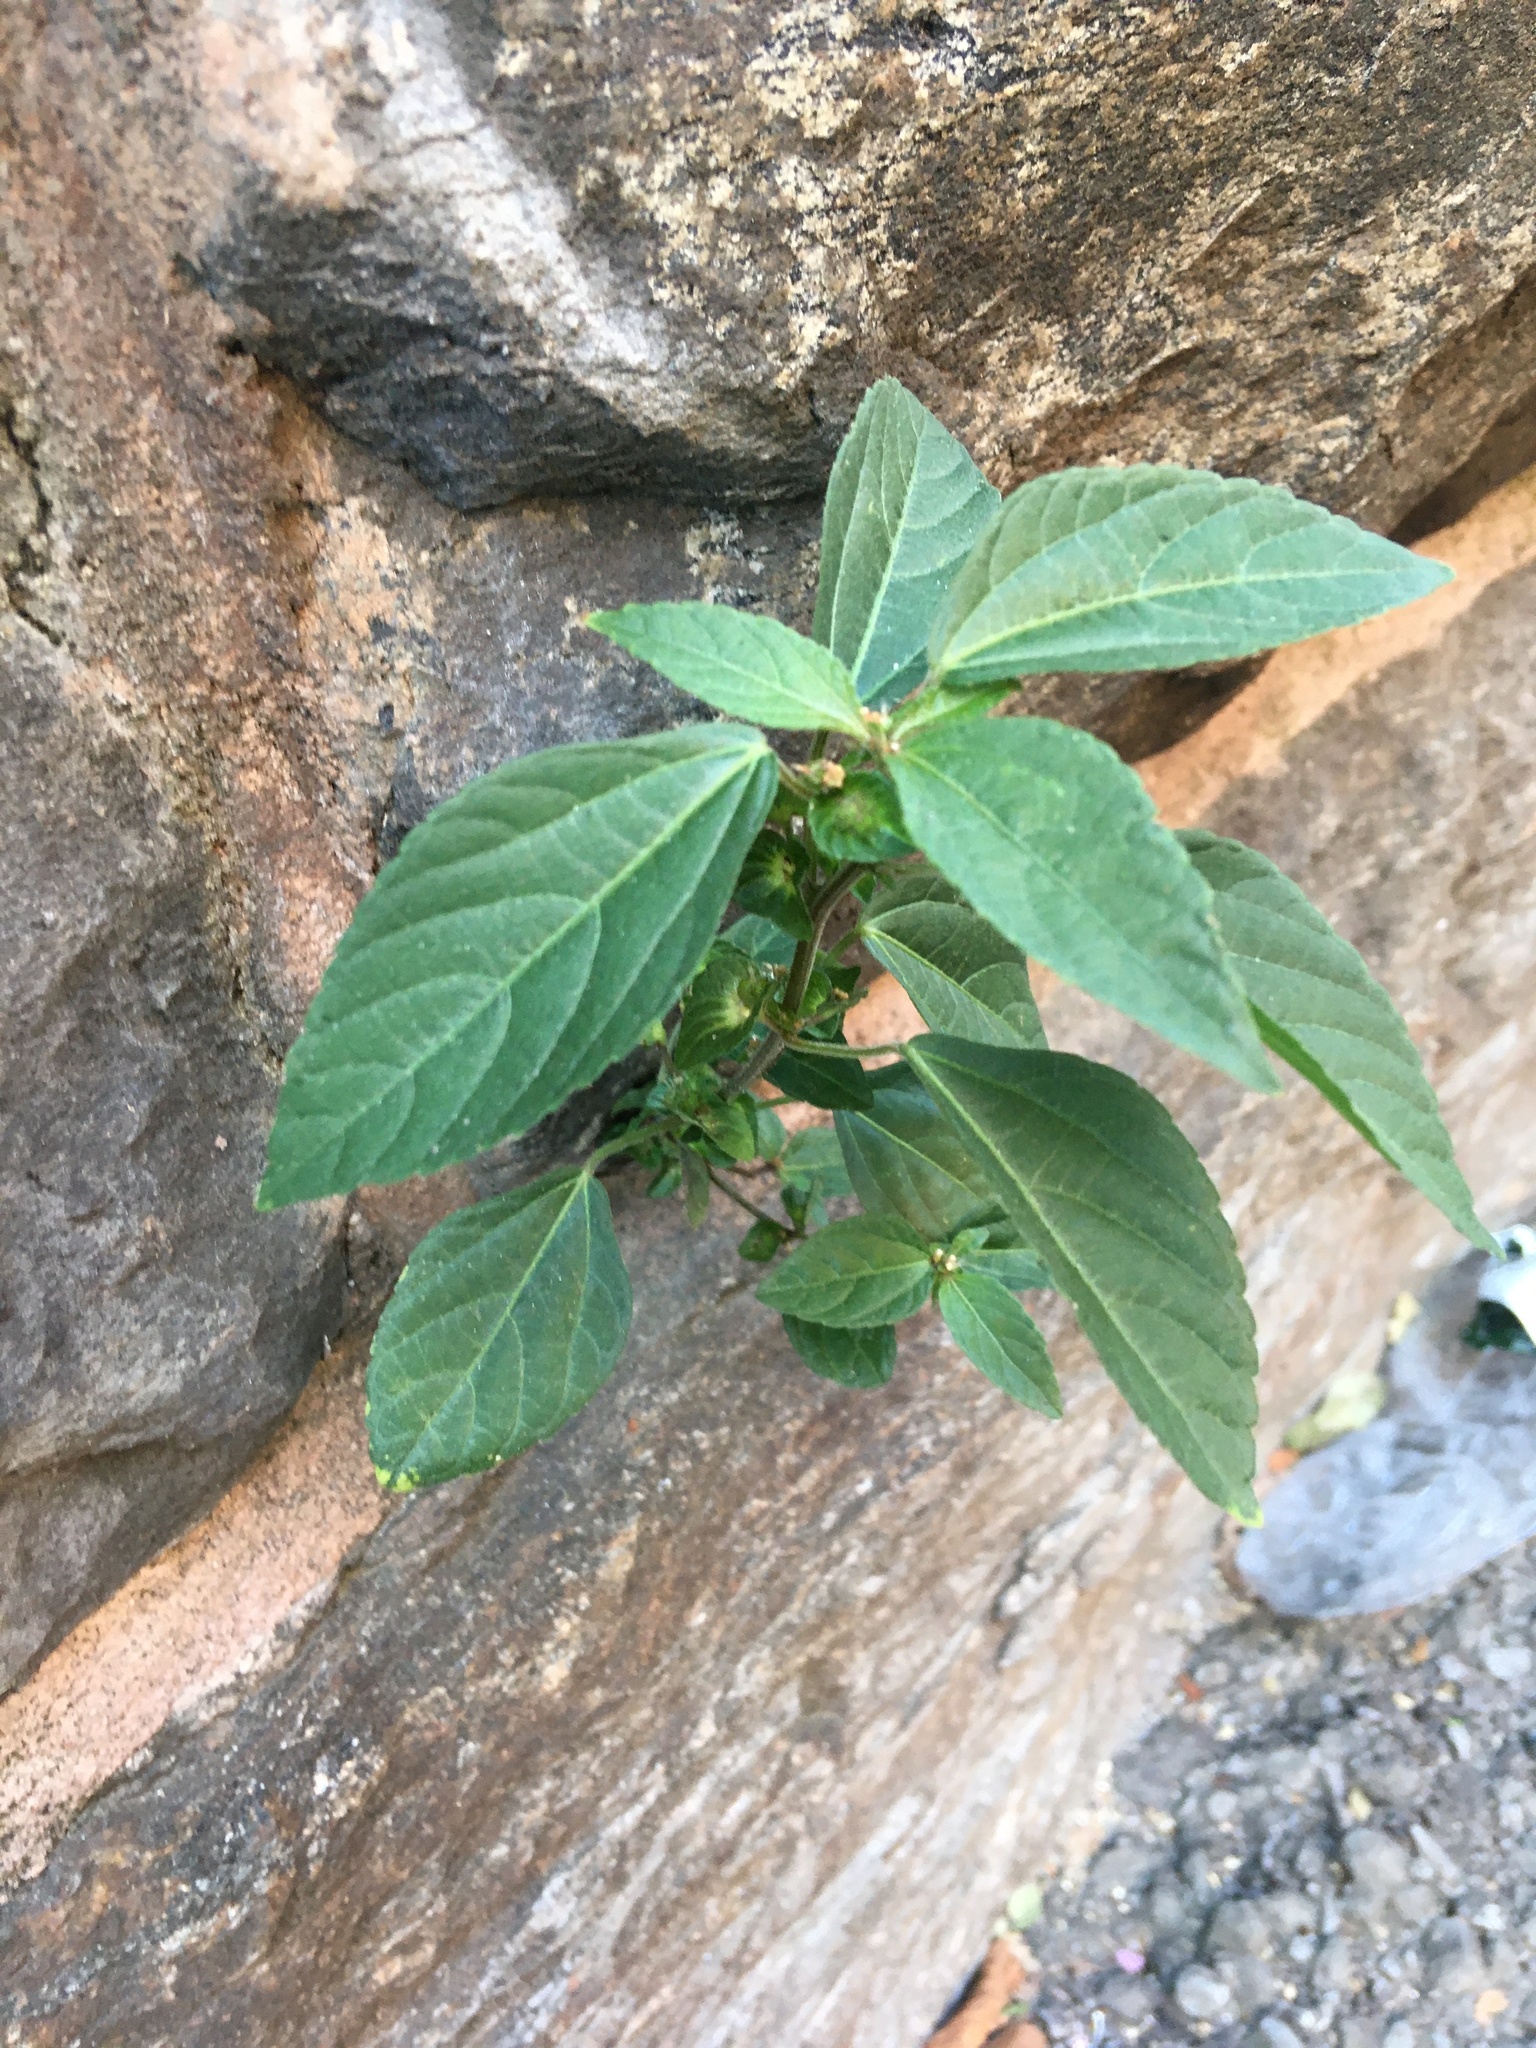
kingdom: Plantae
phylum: Tracheophyta
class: Magnoliopsida
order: Malpighiales
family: Euphorbiaceae
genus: Acalypha
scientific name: Acalypha australis
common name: Asian copperleaf
